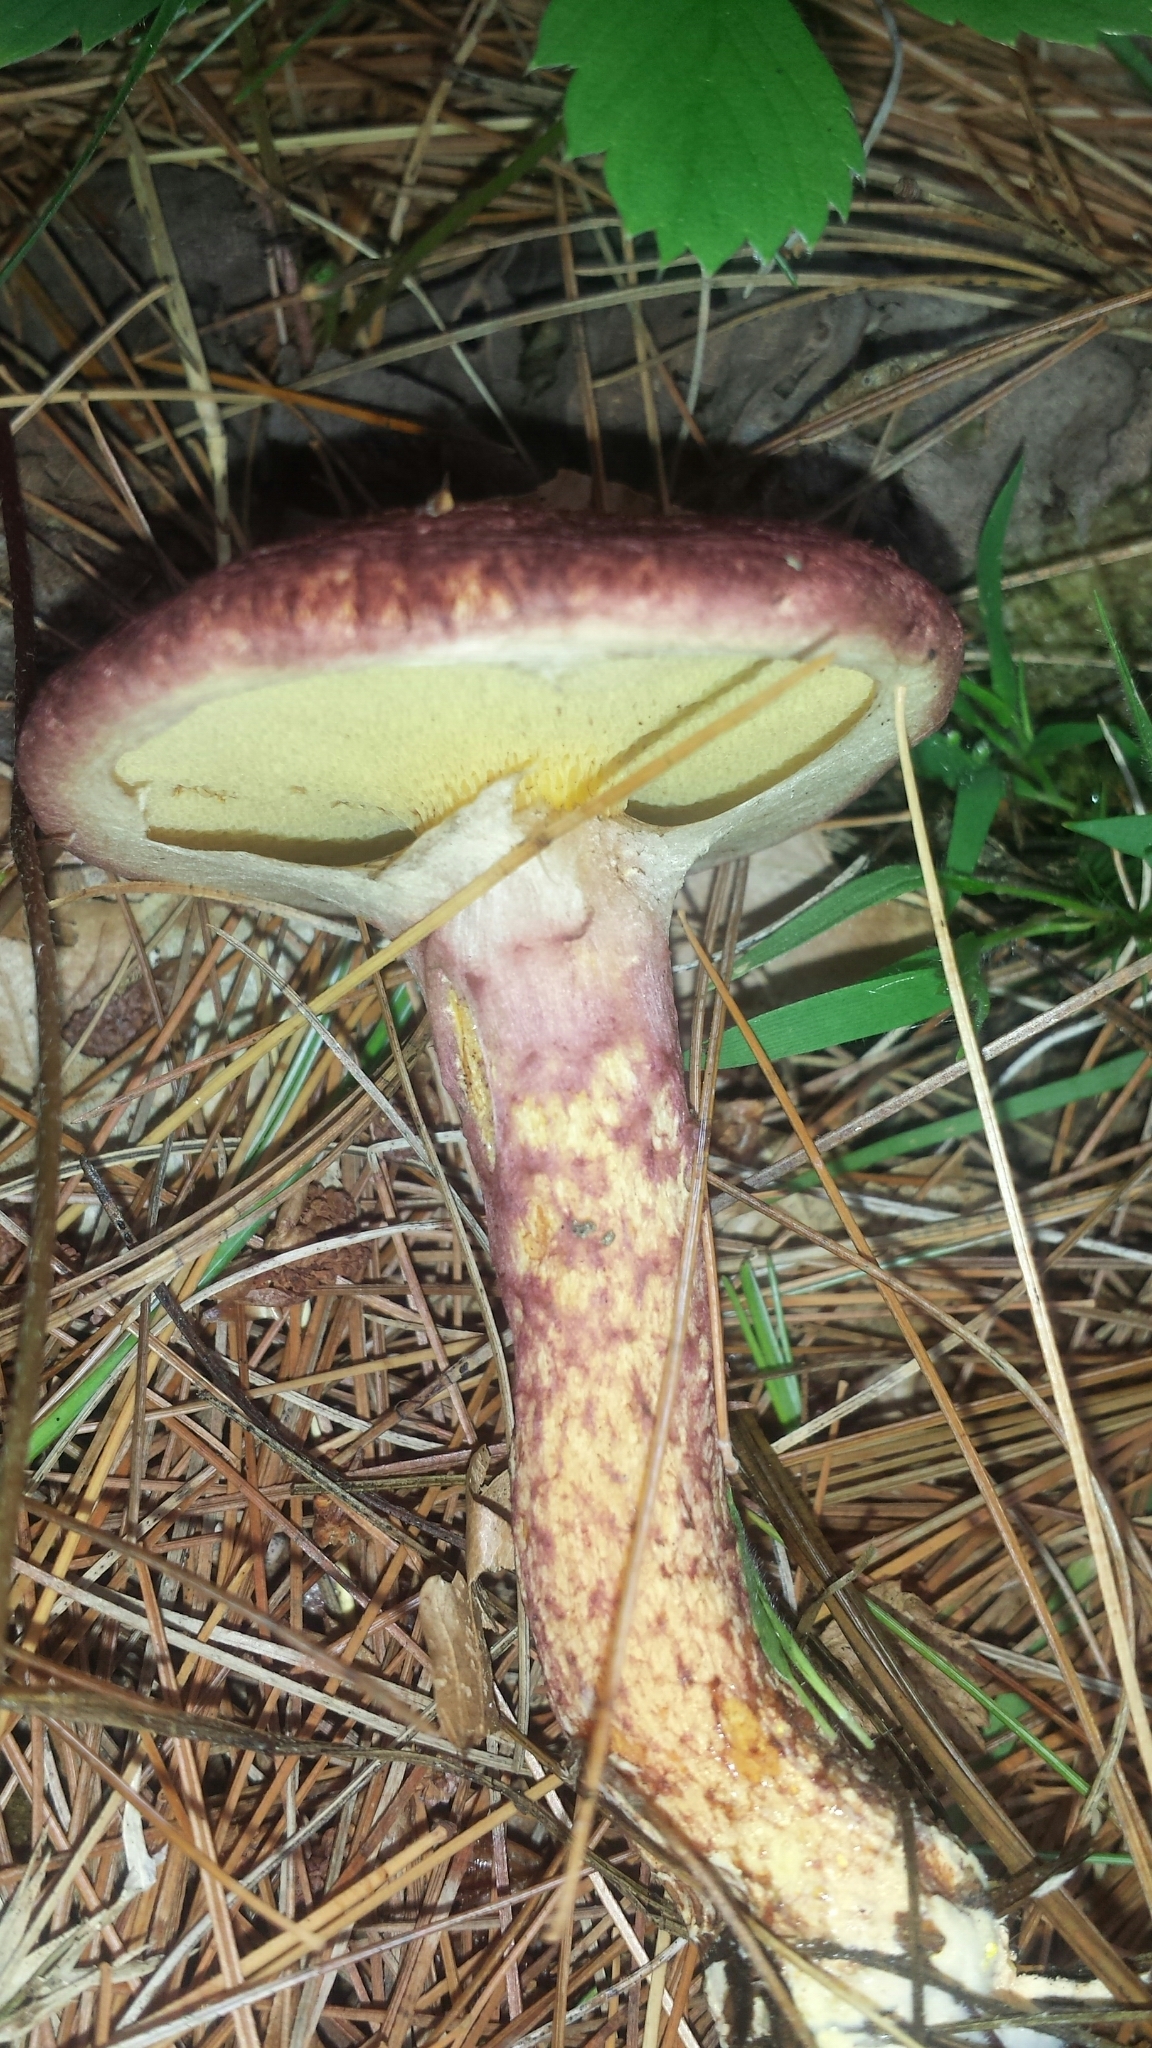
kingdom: Fungi
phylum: Basidiomycota
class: Agaricomycetes
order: Boletales
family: Suillaceae
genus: Suillus
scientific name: Suillus spraguei
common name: Painted suillus
